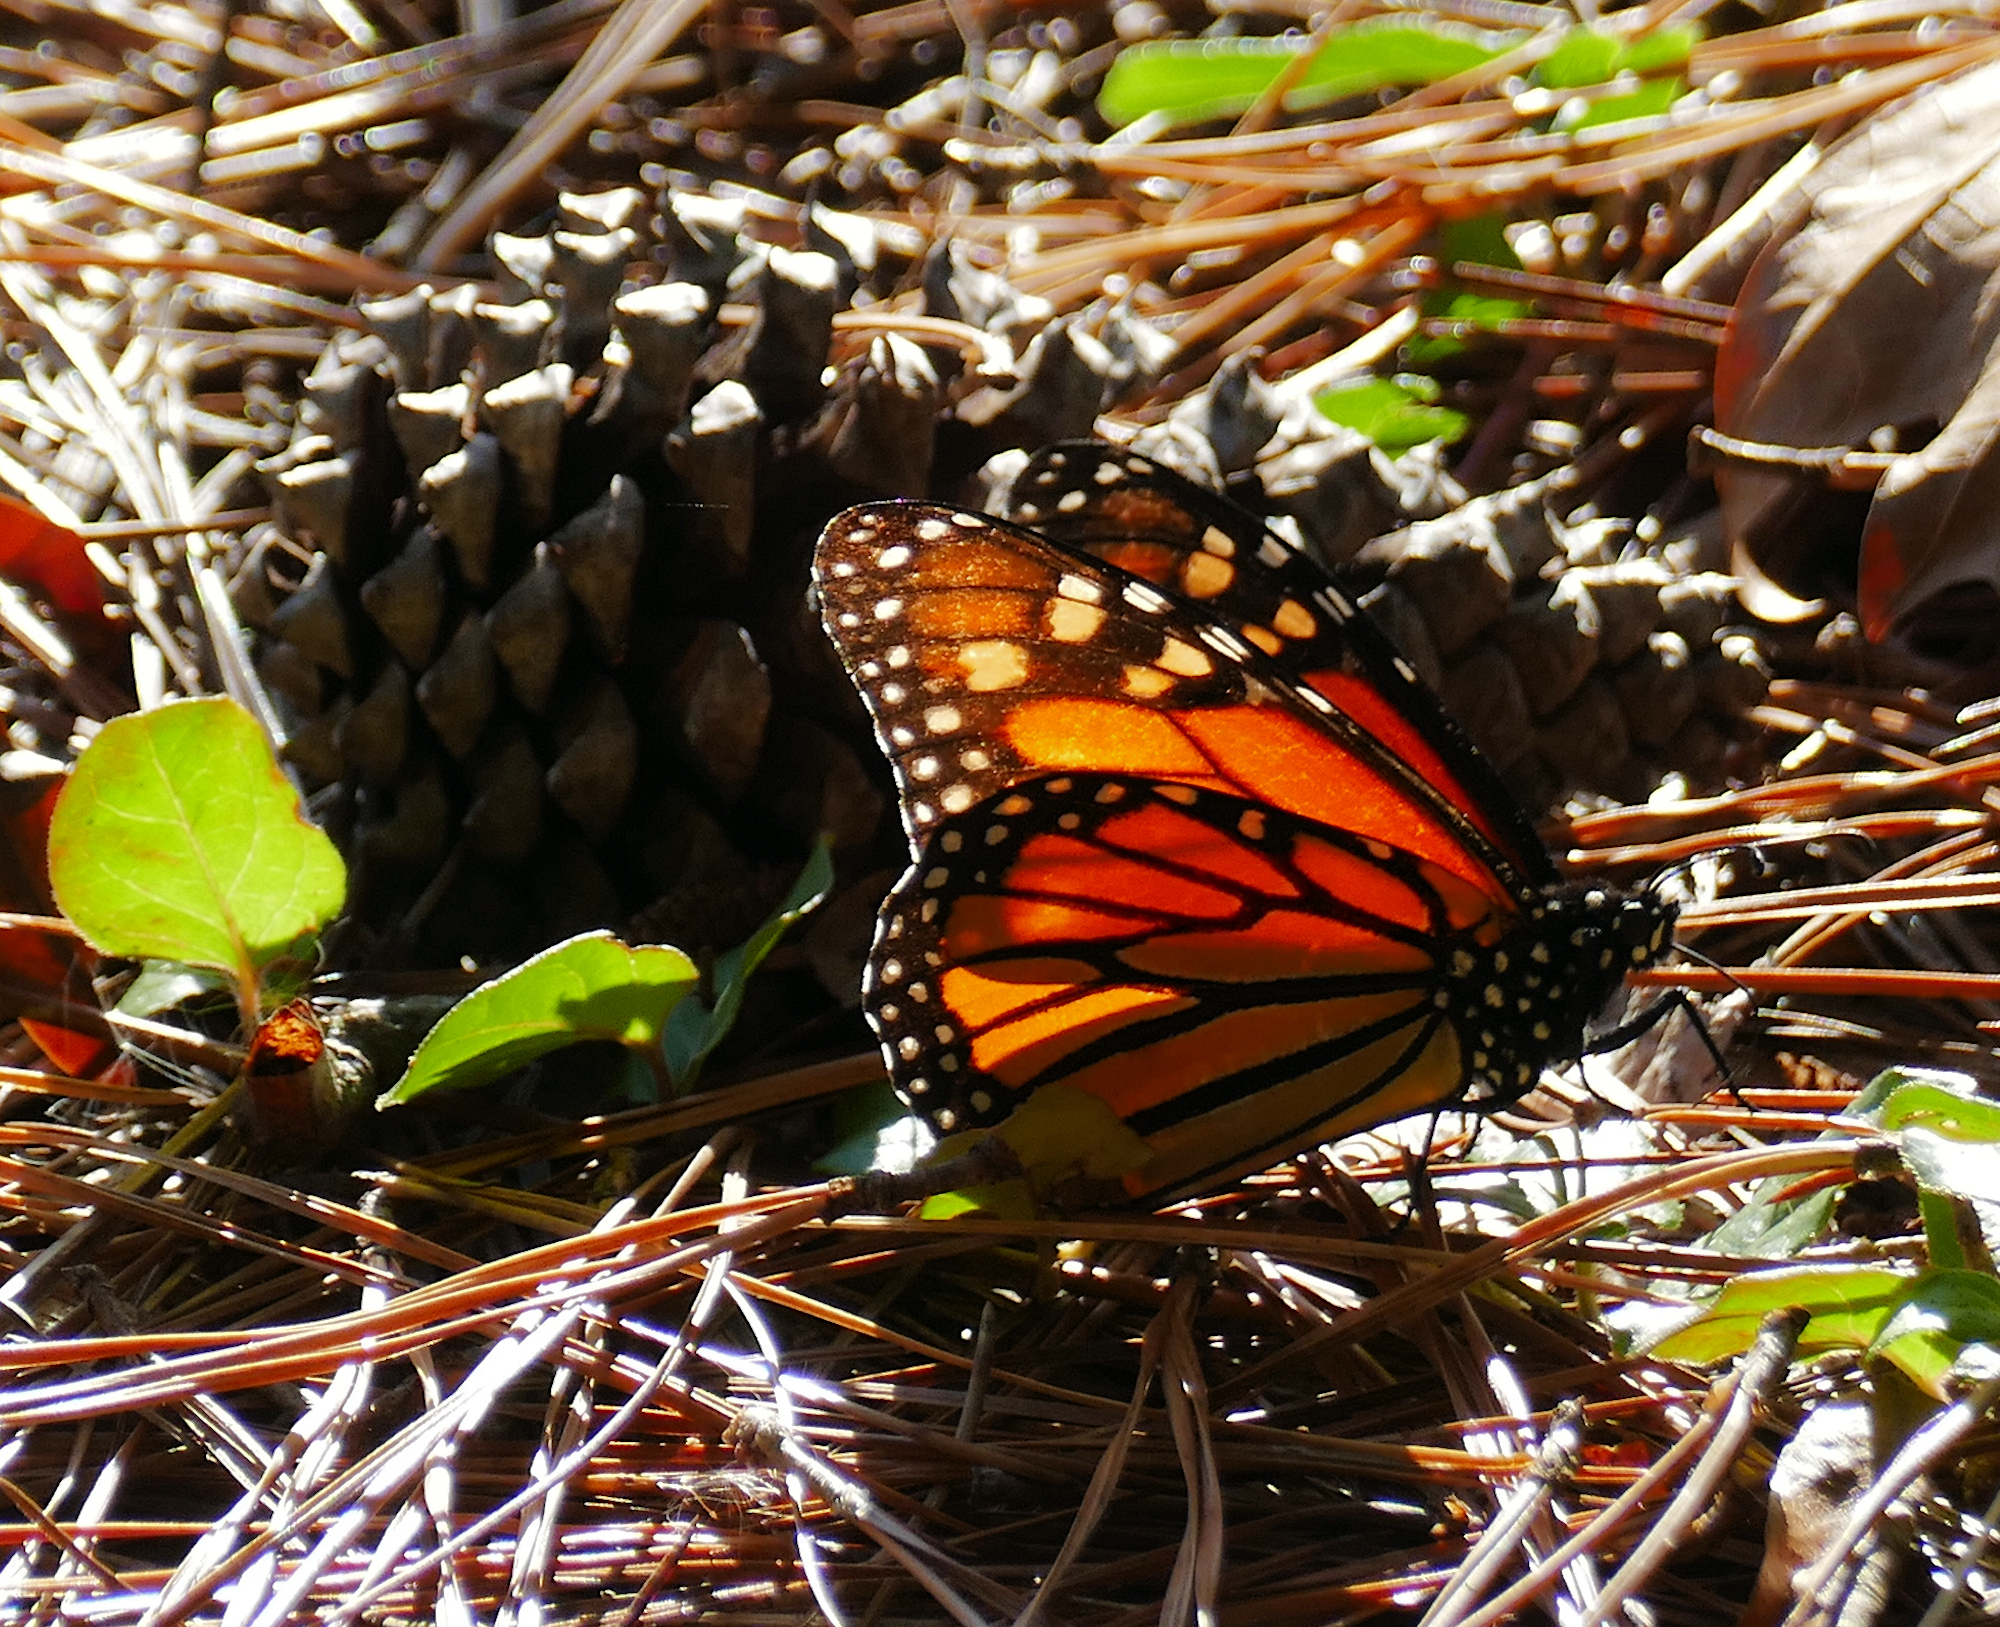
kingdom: Animalia
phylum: Arthropoda
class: Insecta
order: Lepidoptera
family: Nymphalidae
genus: Danaus
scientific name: Danaus plexippus
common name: Monarch
